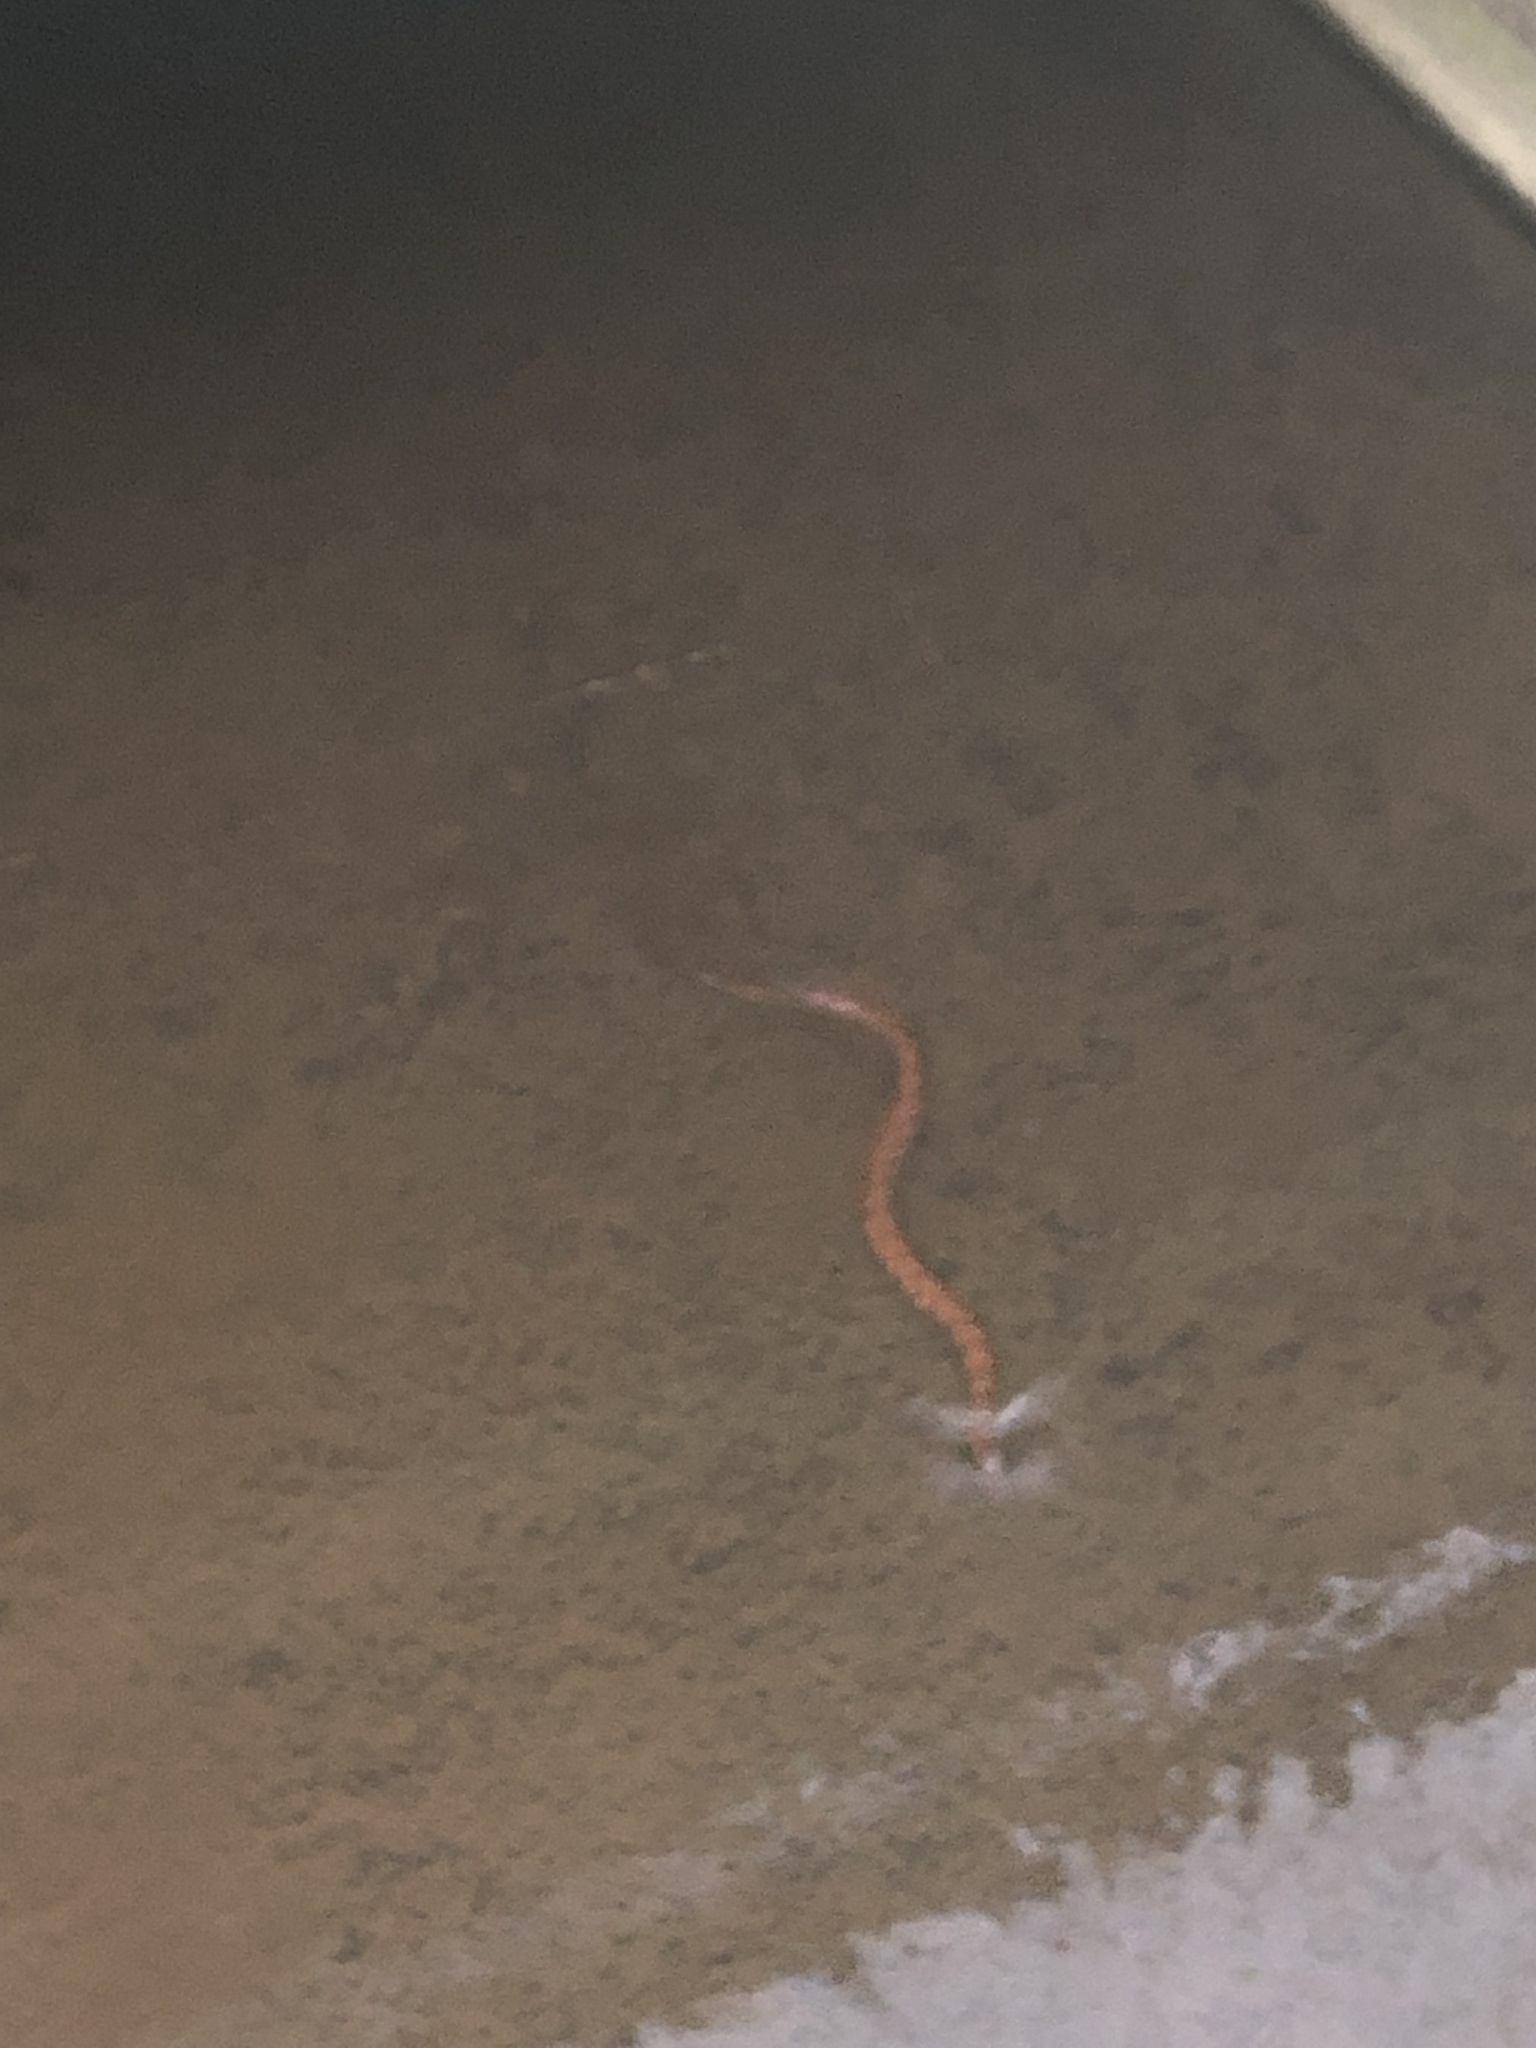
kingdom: Animalia
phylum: Chordata
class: Squamata
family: Colubridae
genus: Nerodia
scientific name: Nerodia sipedon
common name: Northern water snake
